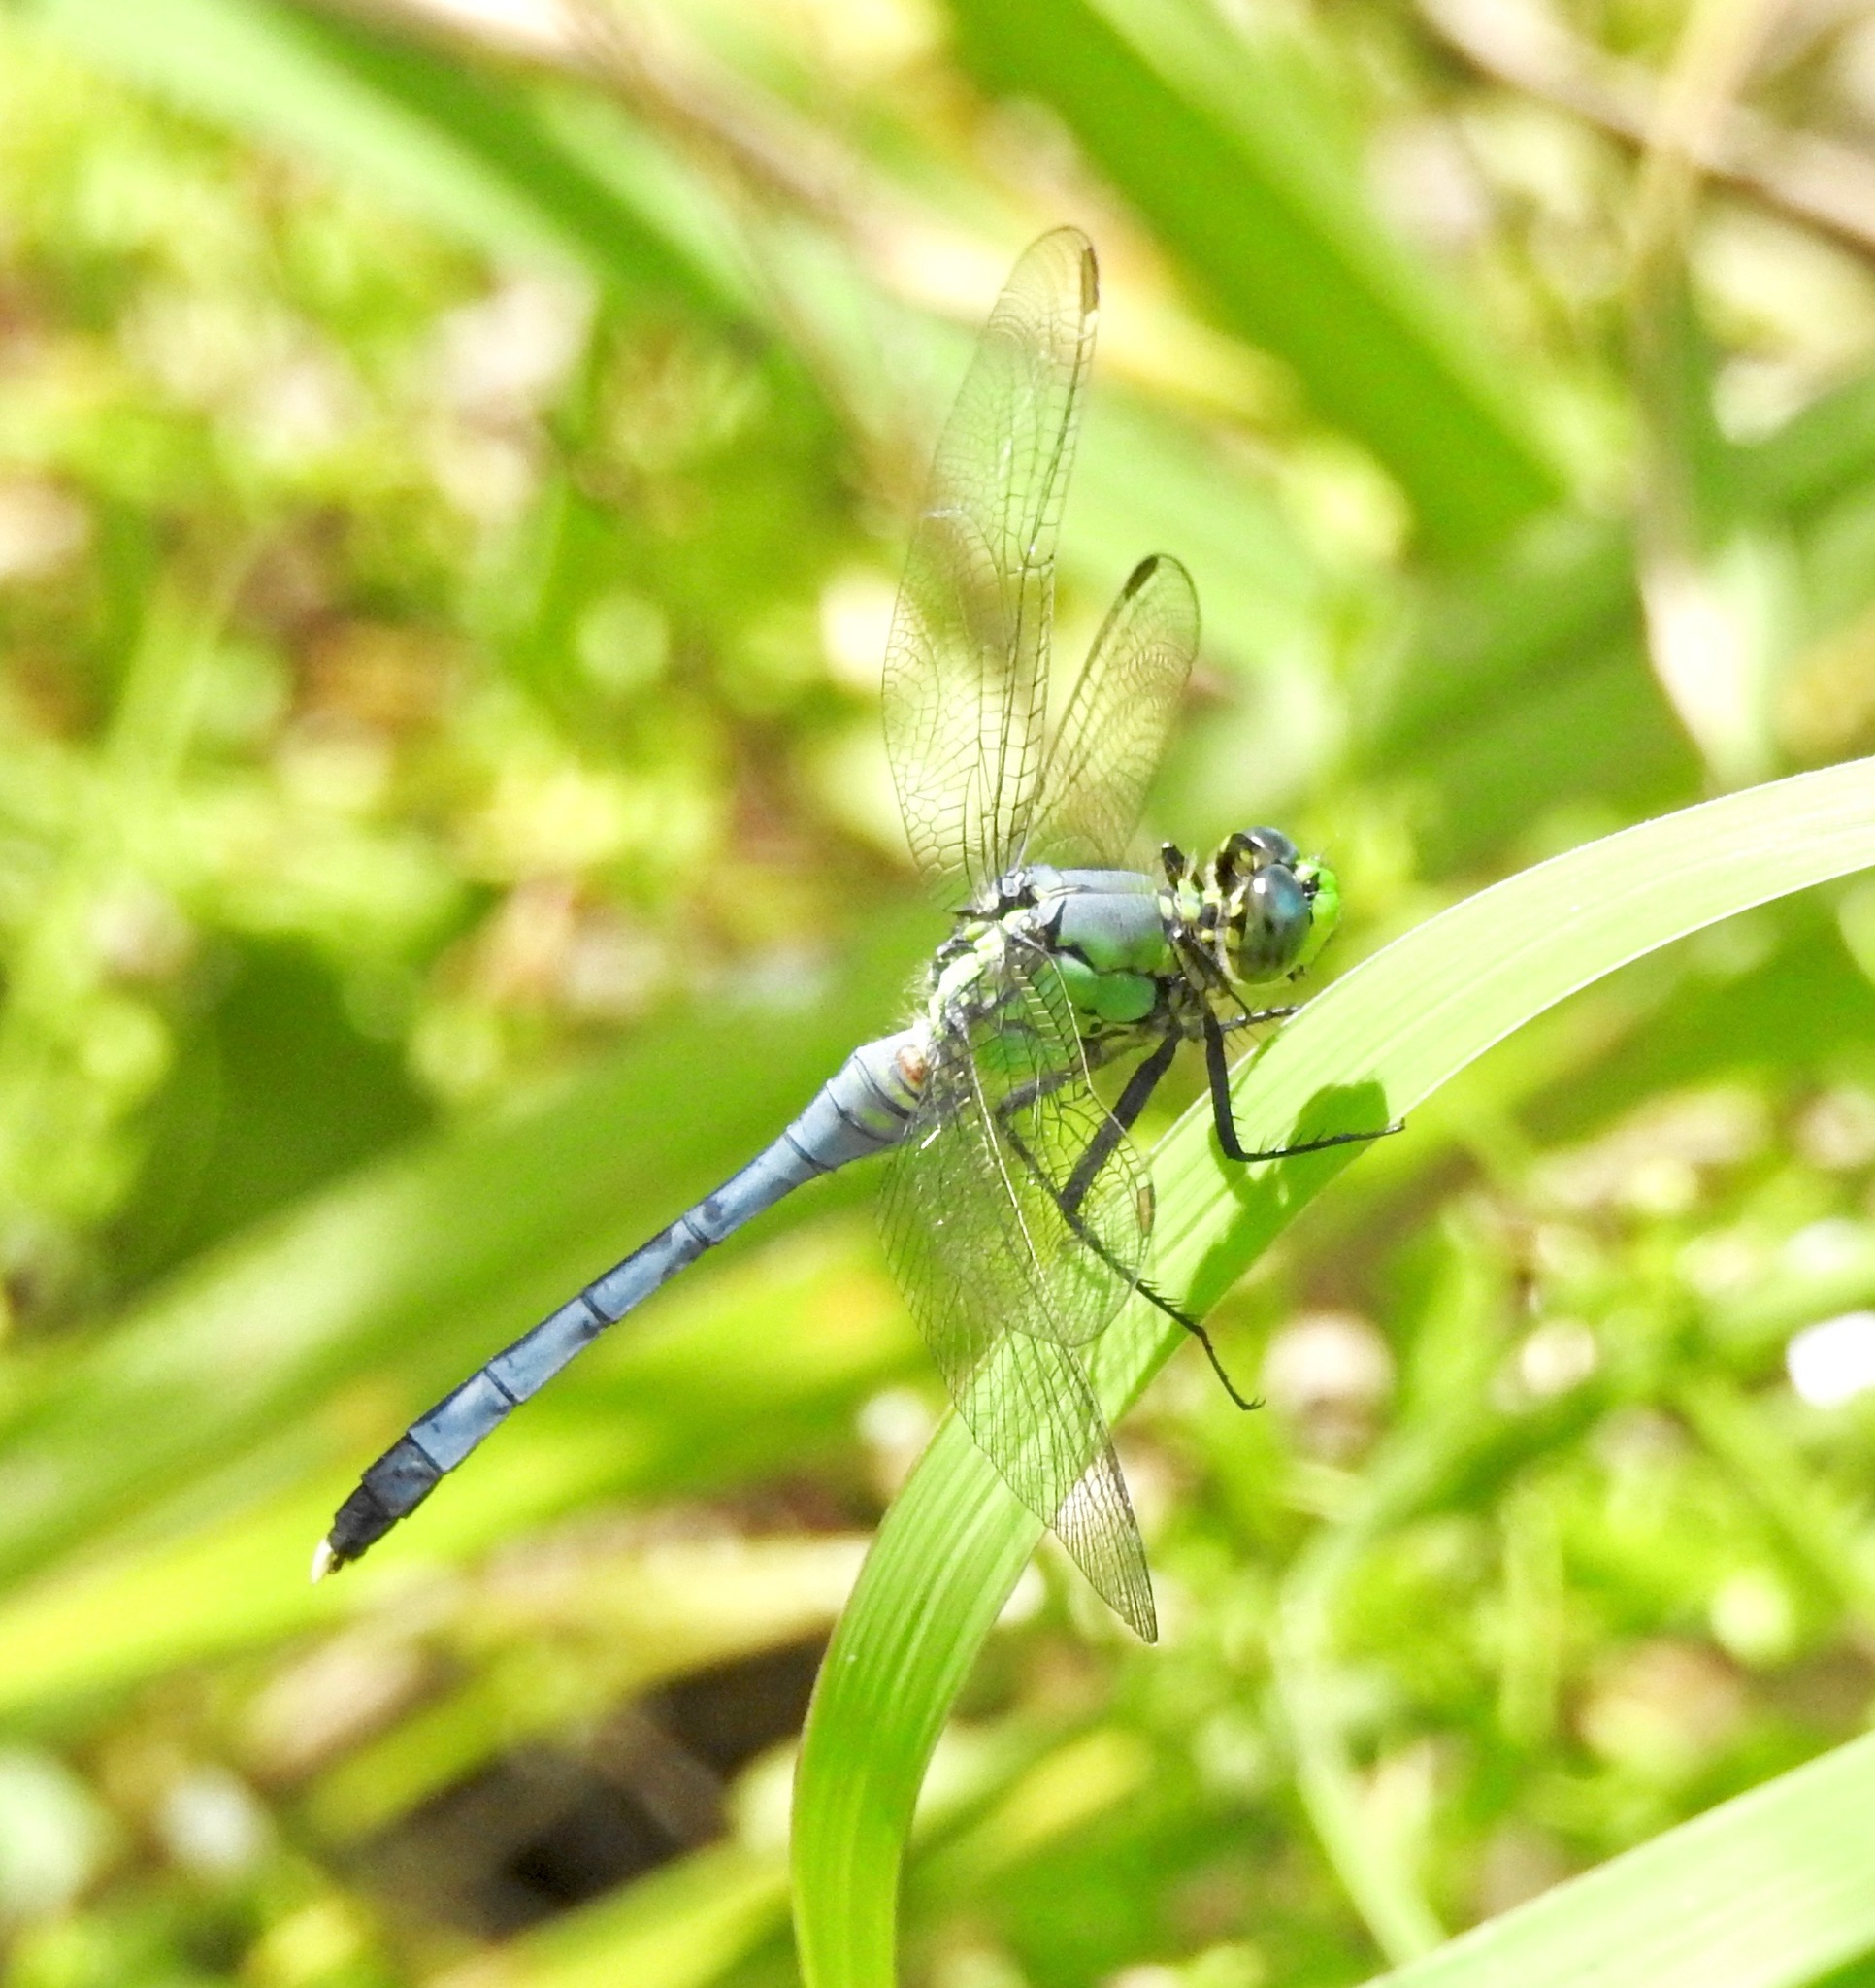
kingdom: Animalia
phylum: Arthropoda
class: Insecta
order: Odonata
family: Libellulidae
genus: Erythemis
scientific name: Erythemis simplicicollis
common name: Eastern pondhawk
